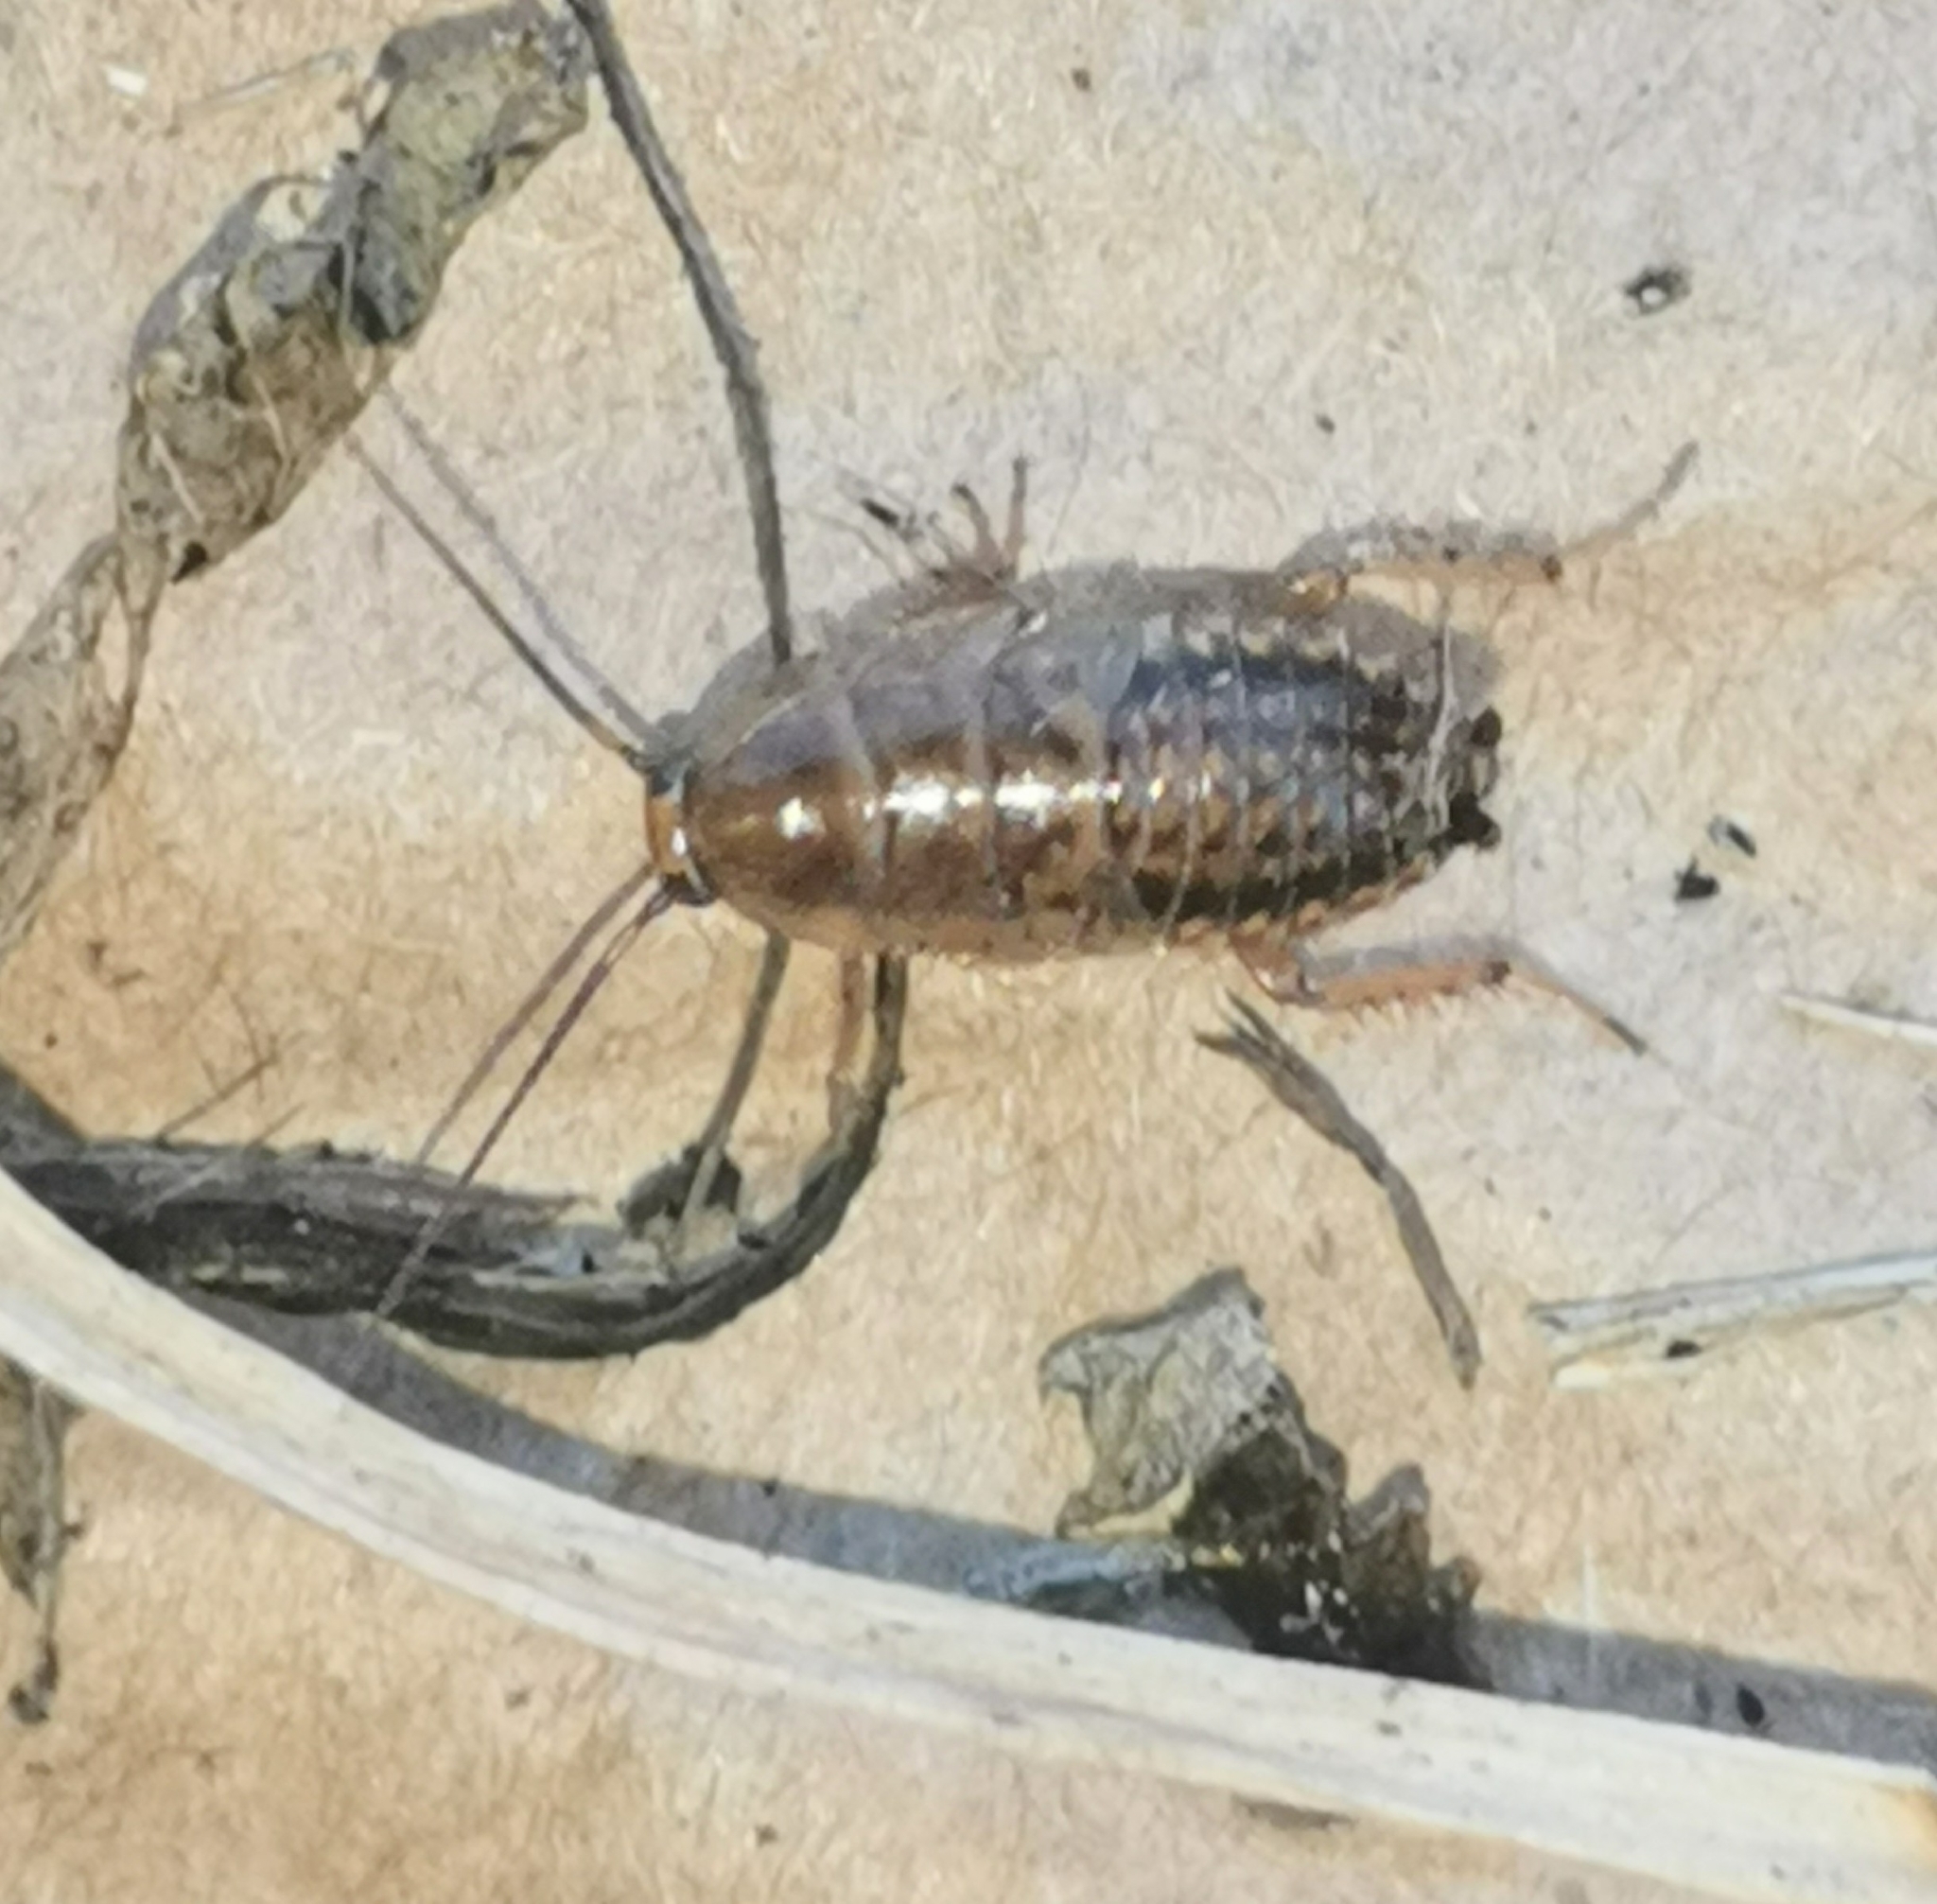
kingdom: Animalia
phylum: Arthropoda
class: Insecta
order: Blattodea
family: Ectobiidae
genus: Ectobius
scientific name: Ectobius lapponicus
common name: Dusky cockroach
